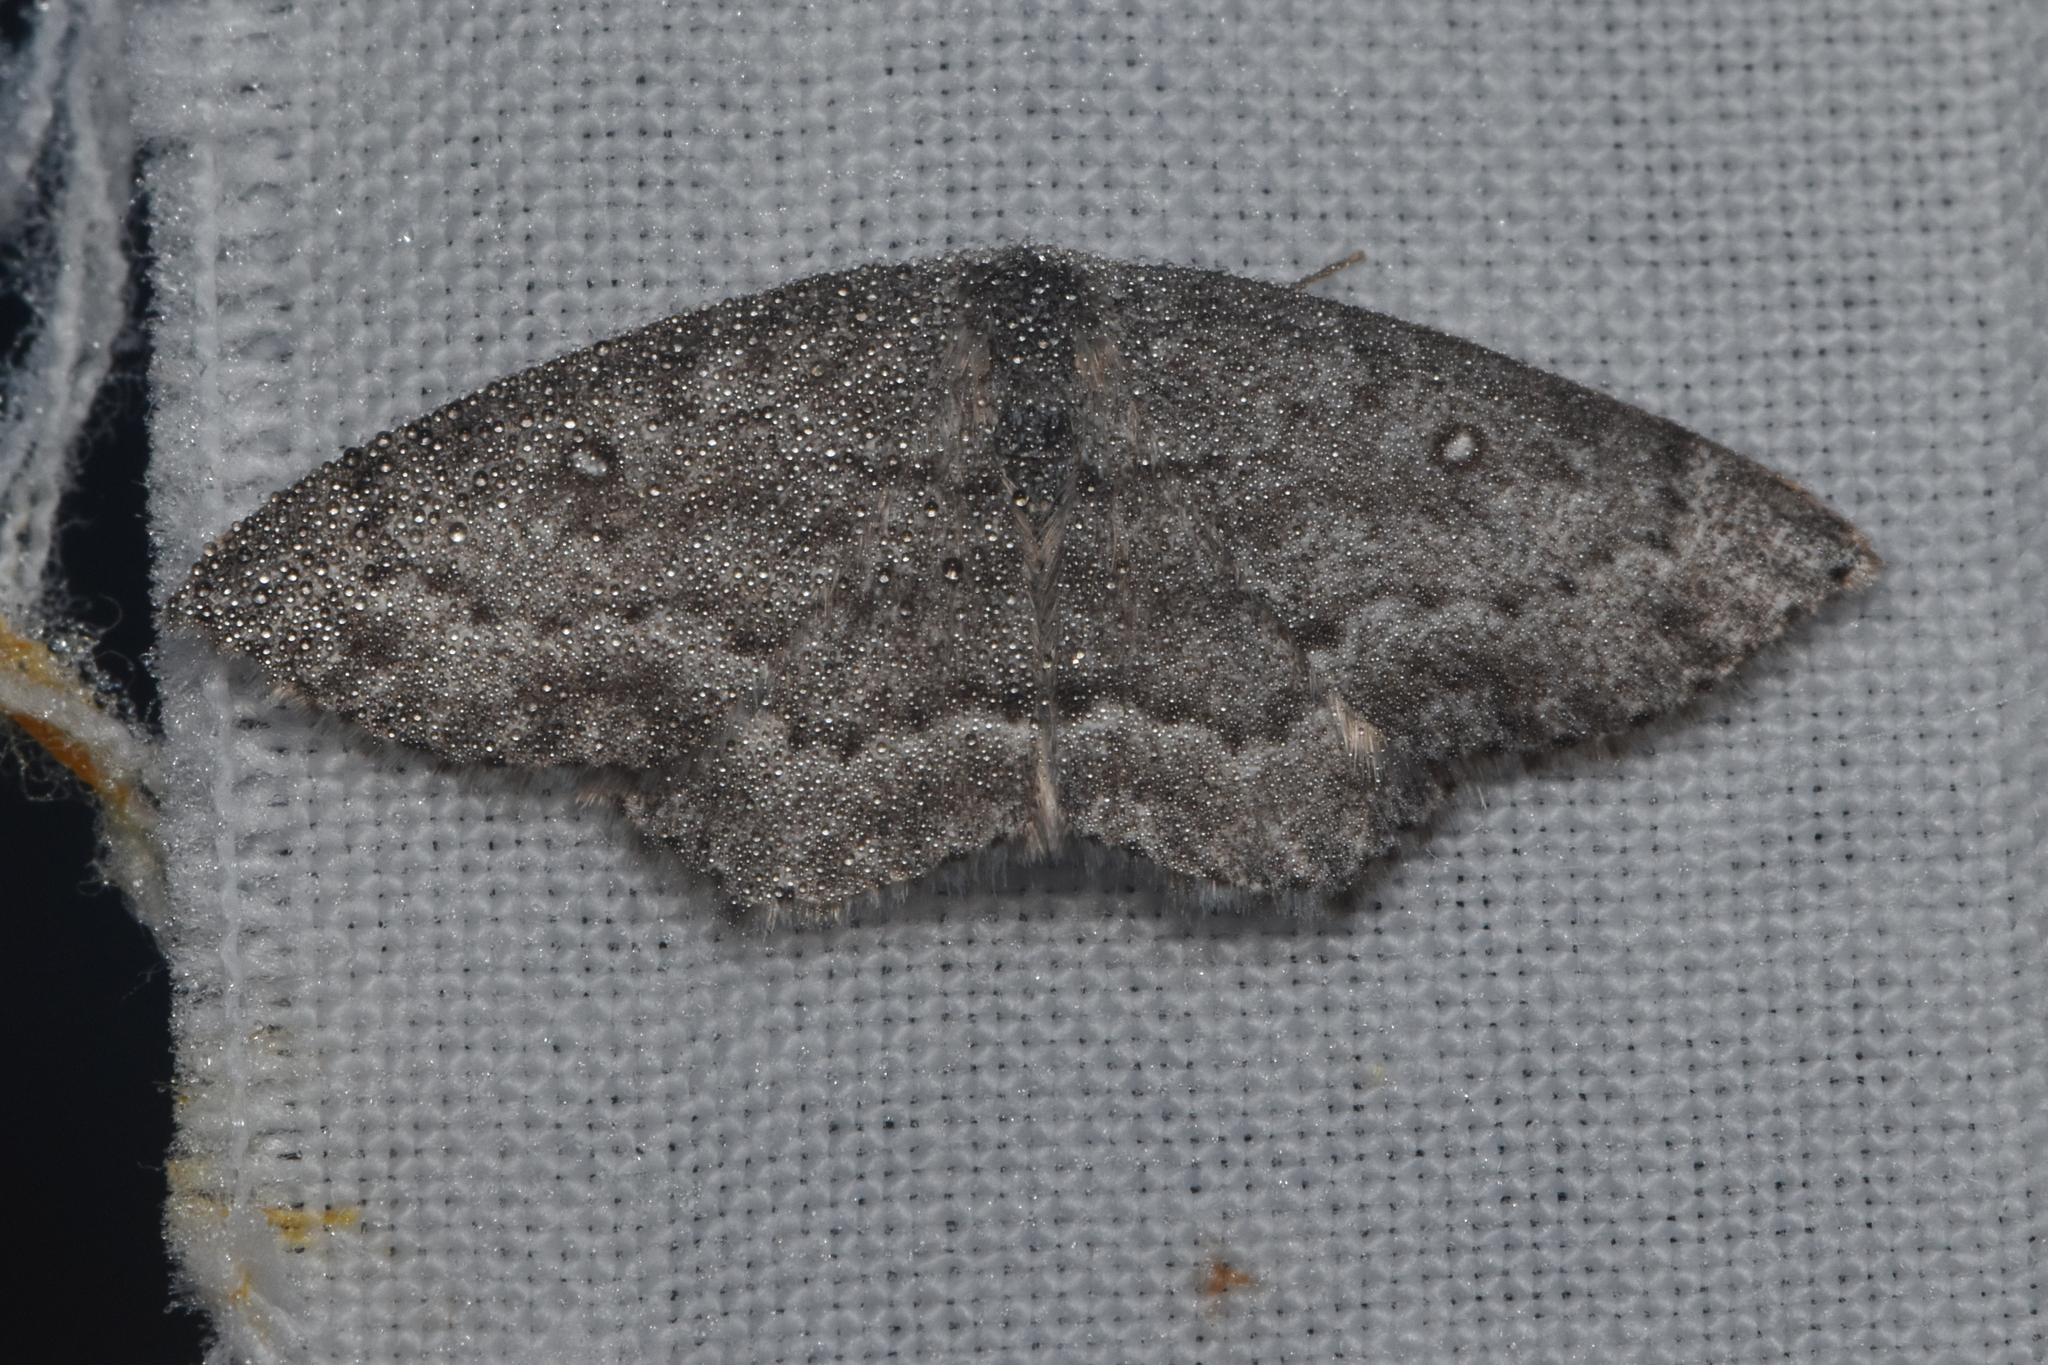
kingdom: Animalia
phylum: Arthropoda
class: Insecta
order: Lepidoptera
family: Geometridae
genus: Cyclophora
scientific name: Cyclophora pendulinaria
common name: Sweet fern geometer
